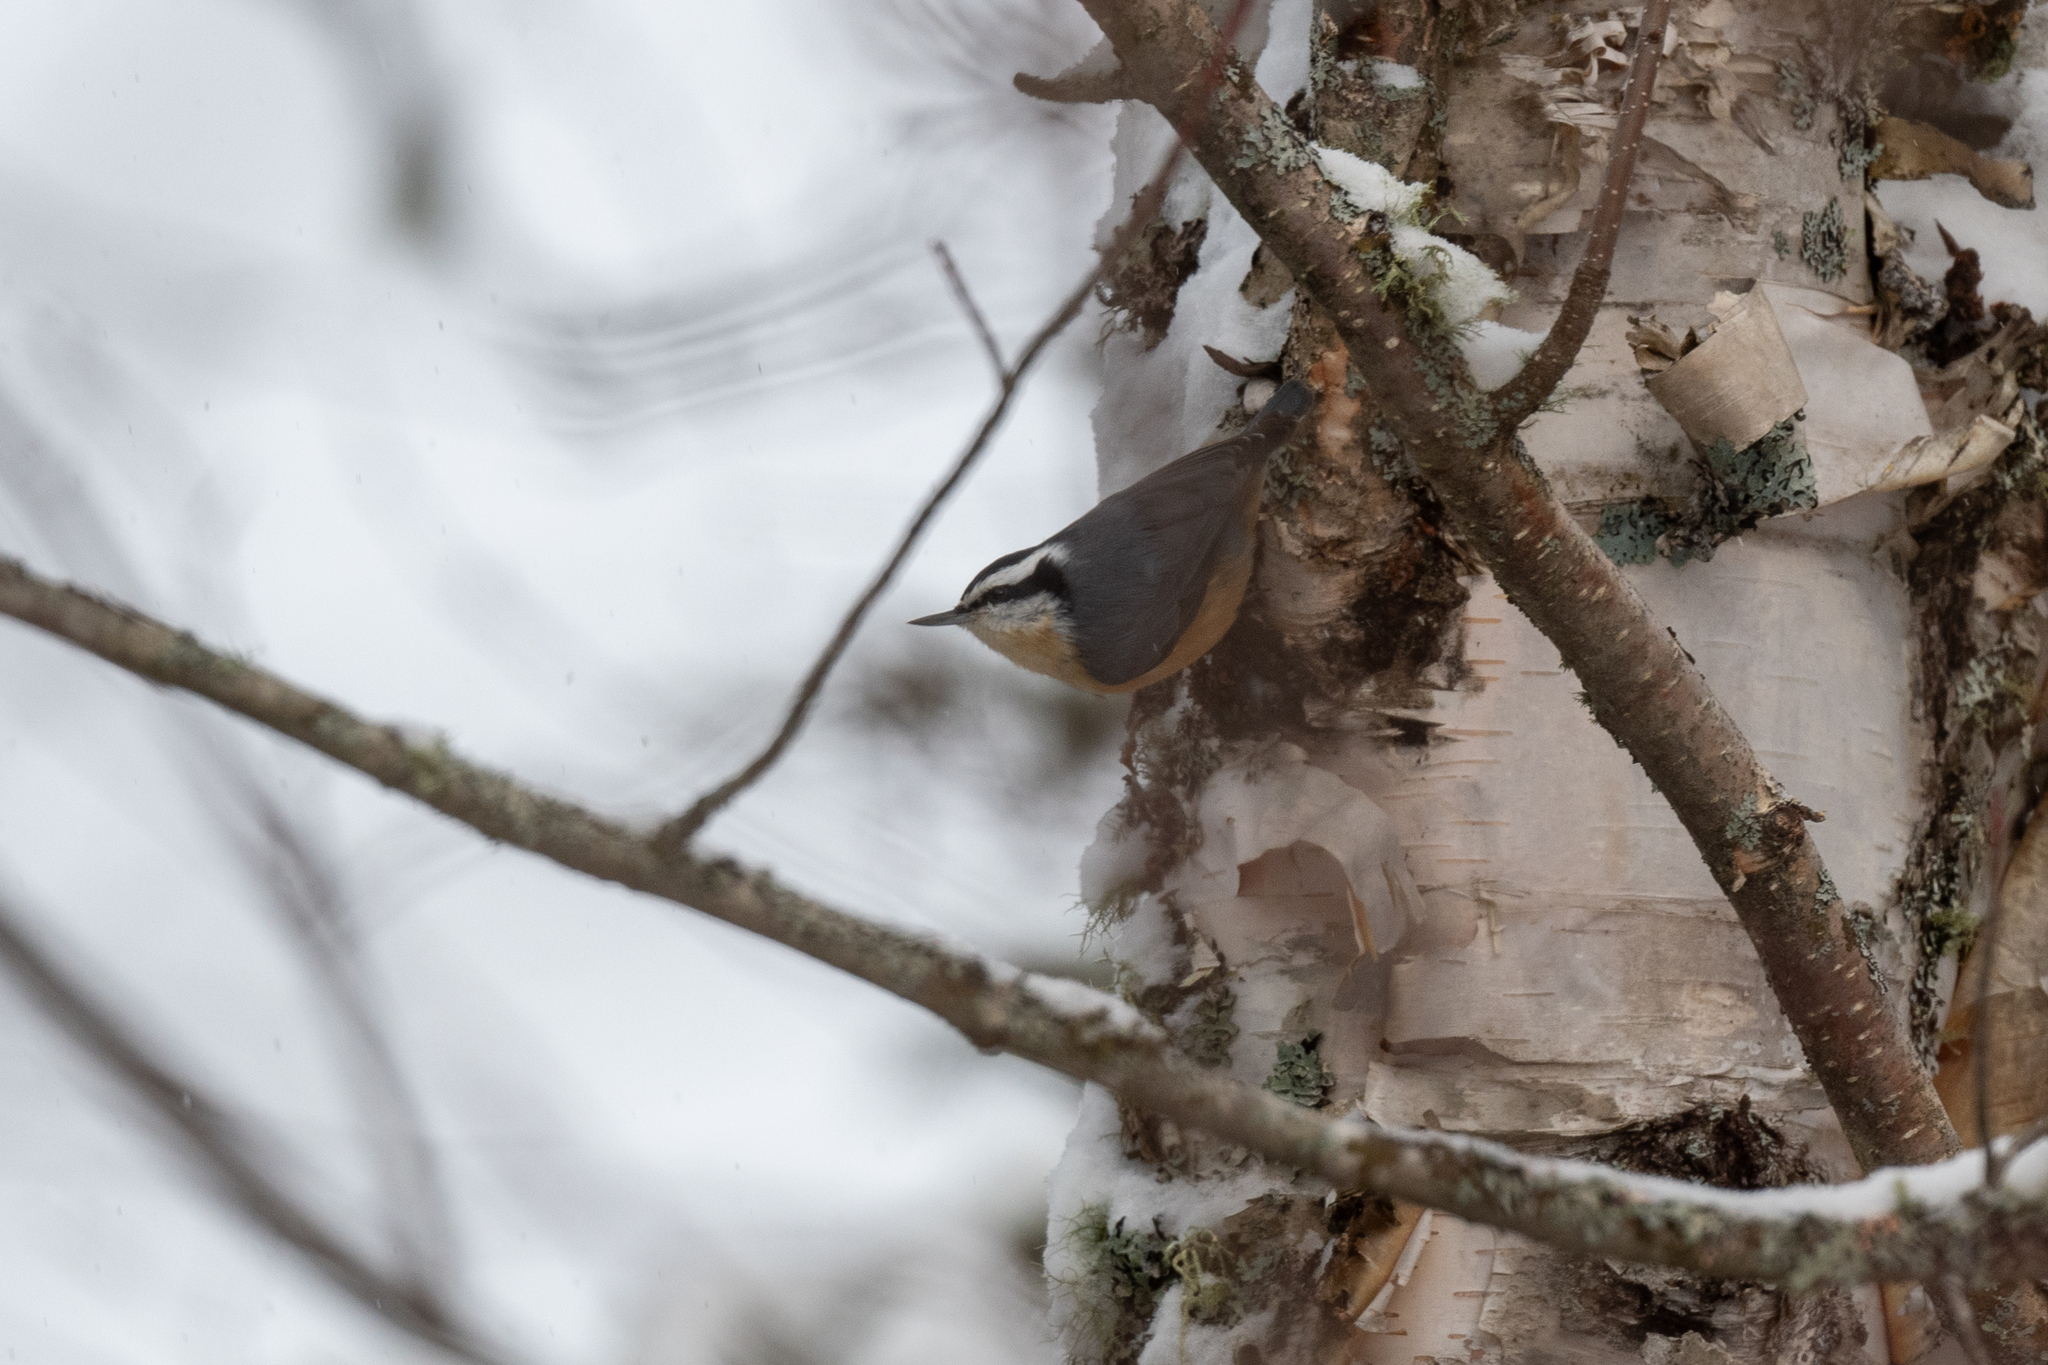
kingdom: Animalia
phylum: Chordata
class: Aves
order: Passeriformes
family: Sittidae
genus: Sitta
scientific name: Sitta canadensis
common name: Red-breasted nuthatch
